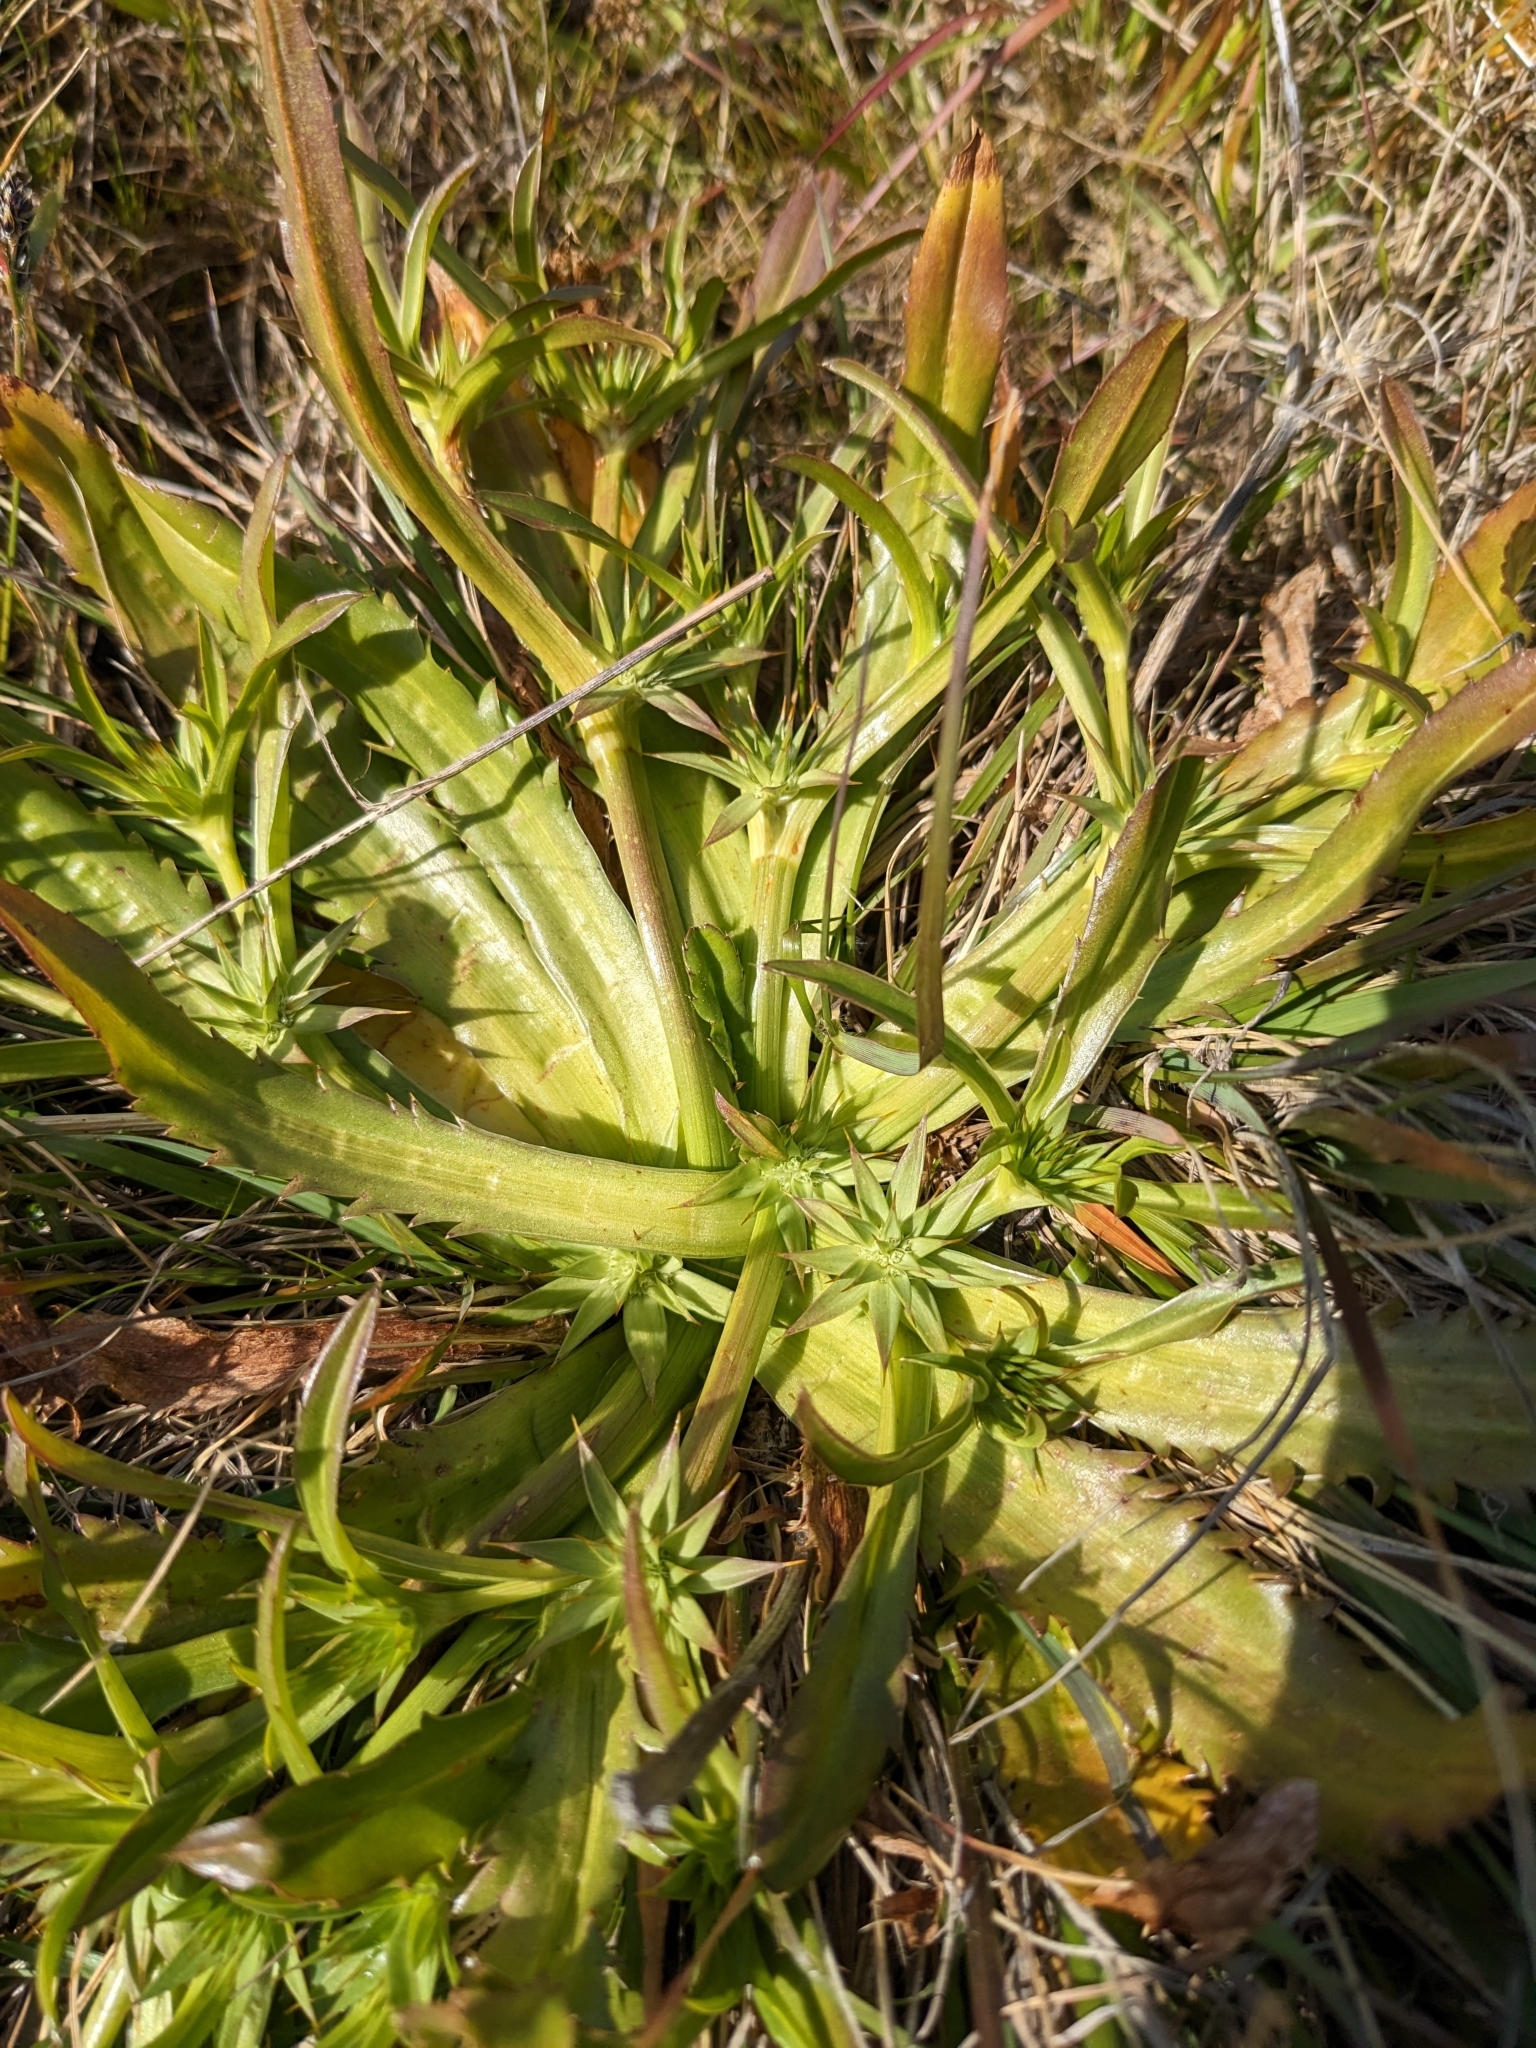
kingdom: Plantae
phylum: Tracheophyta
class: Magnoliopsida
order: Apiales
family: Apiaceae
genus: Eryngium
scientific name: Eryngium armatum
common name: Coyote thistle
